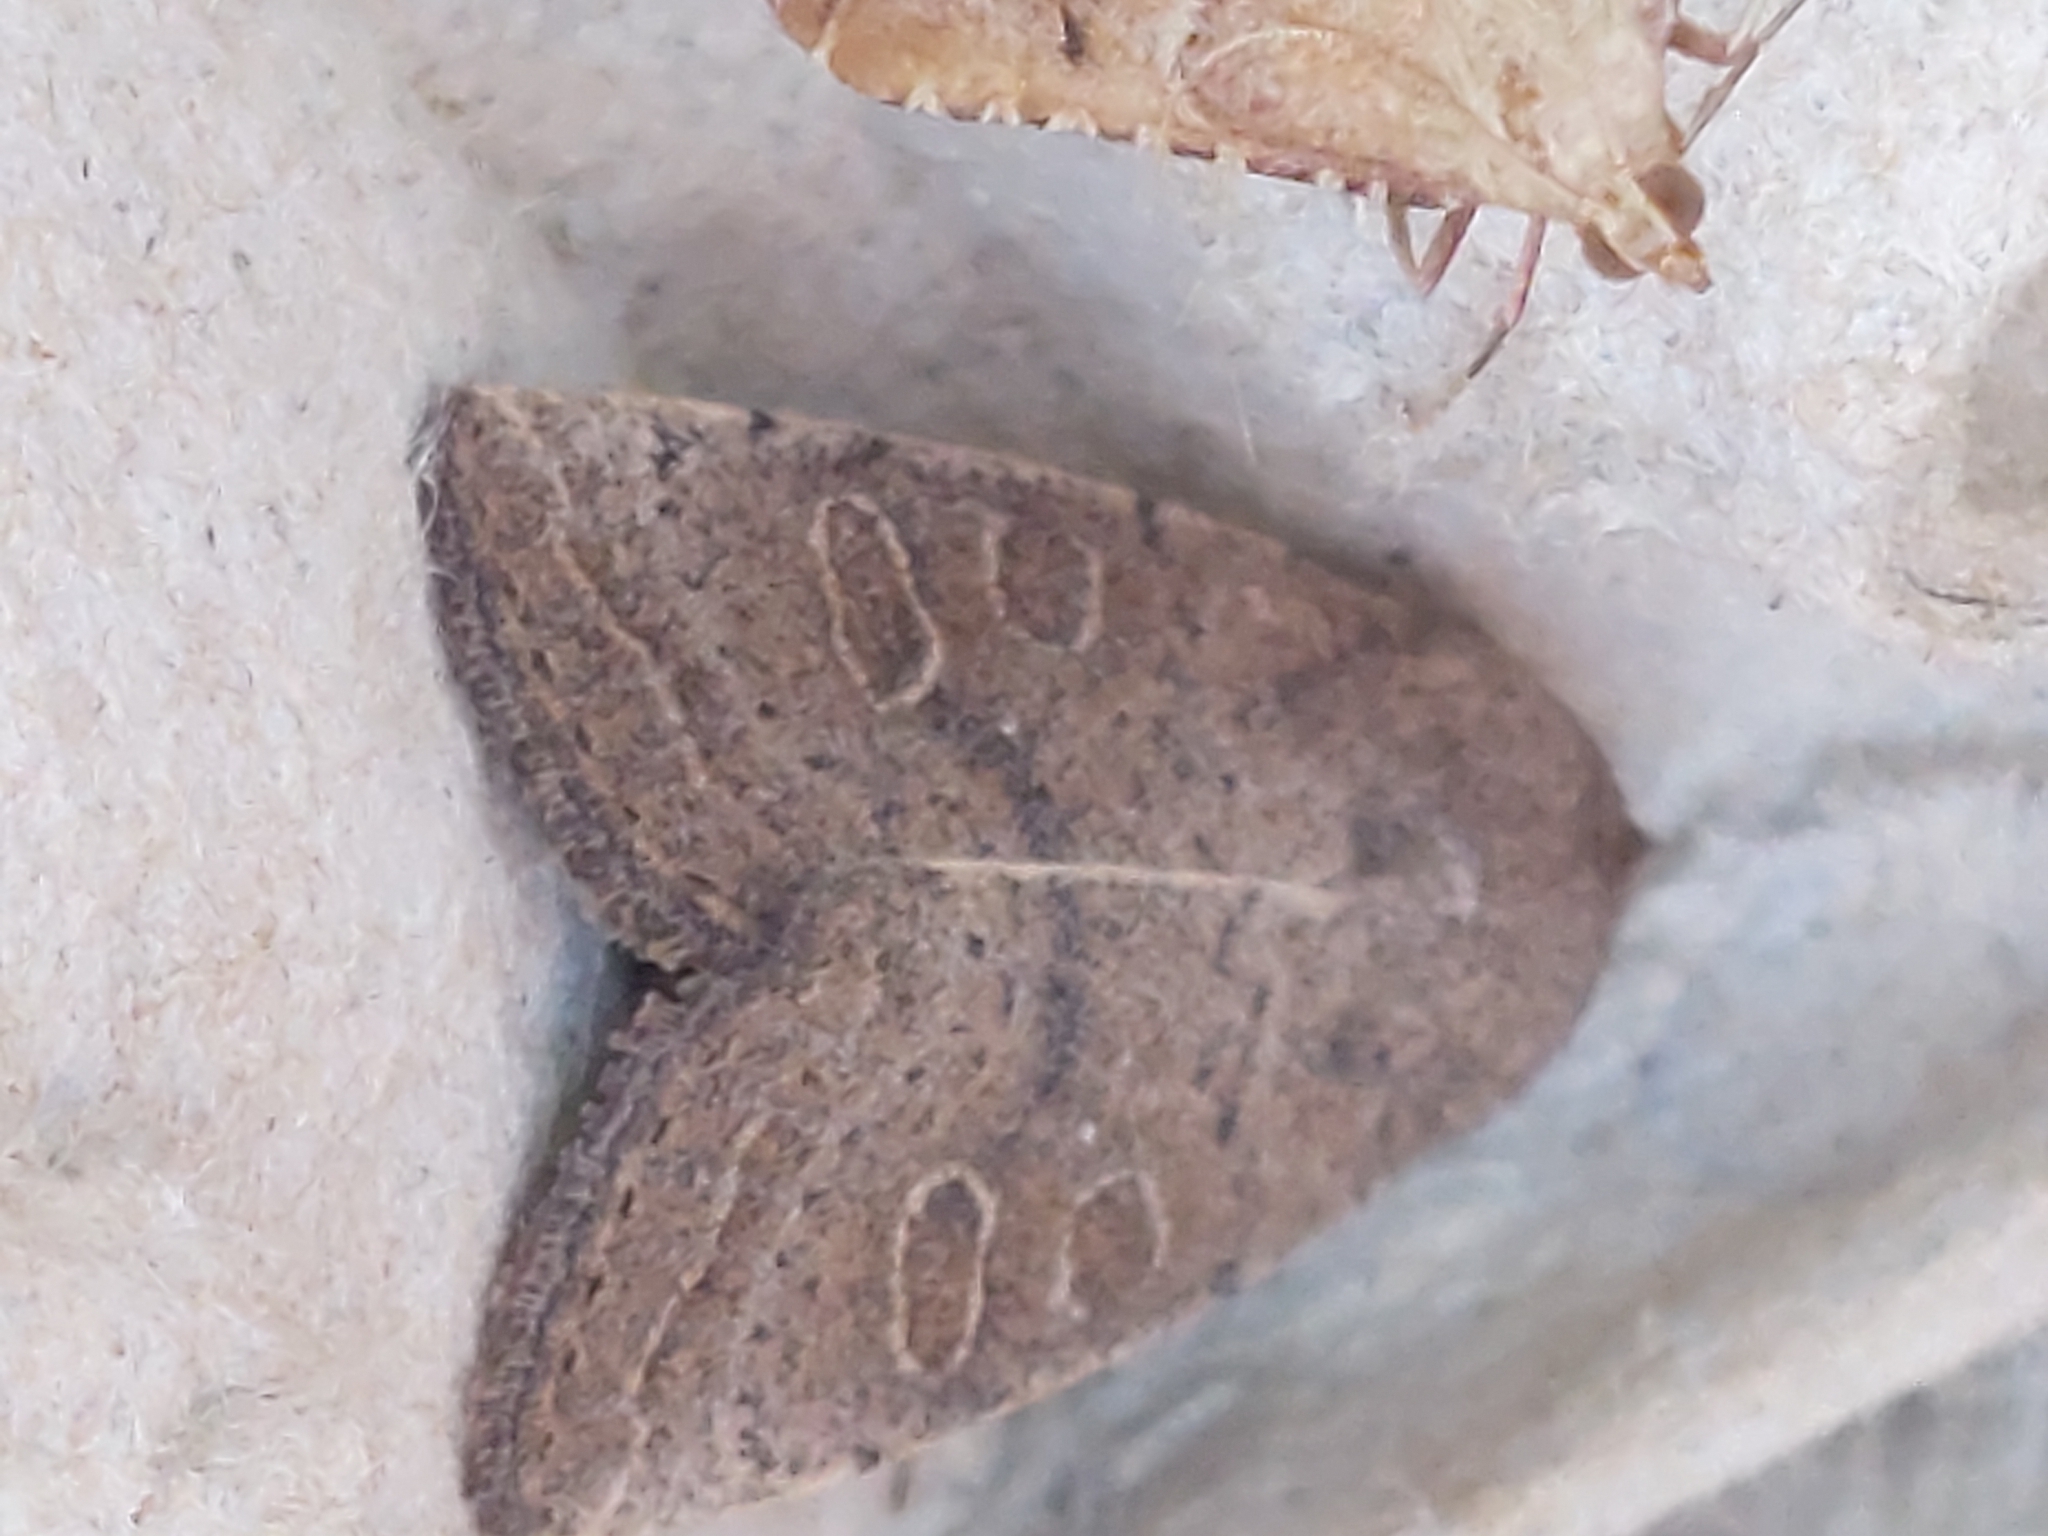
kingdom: Animalia
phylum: Arthropoda
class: Insecta
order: Lepidoptera
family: Noctuidae
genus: Hoplodrina
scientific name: Hoplodrina ambigua
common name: Vine's rustic
